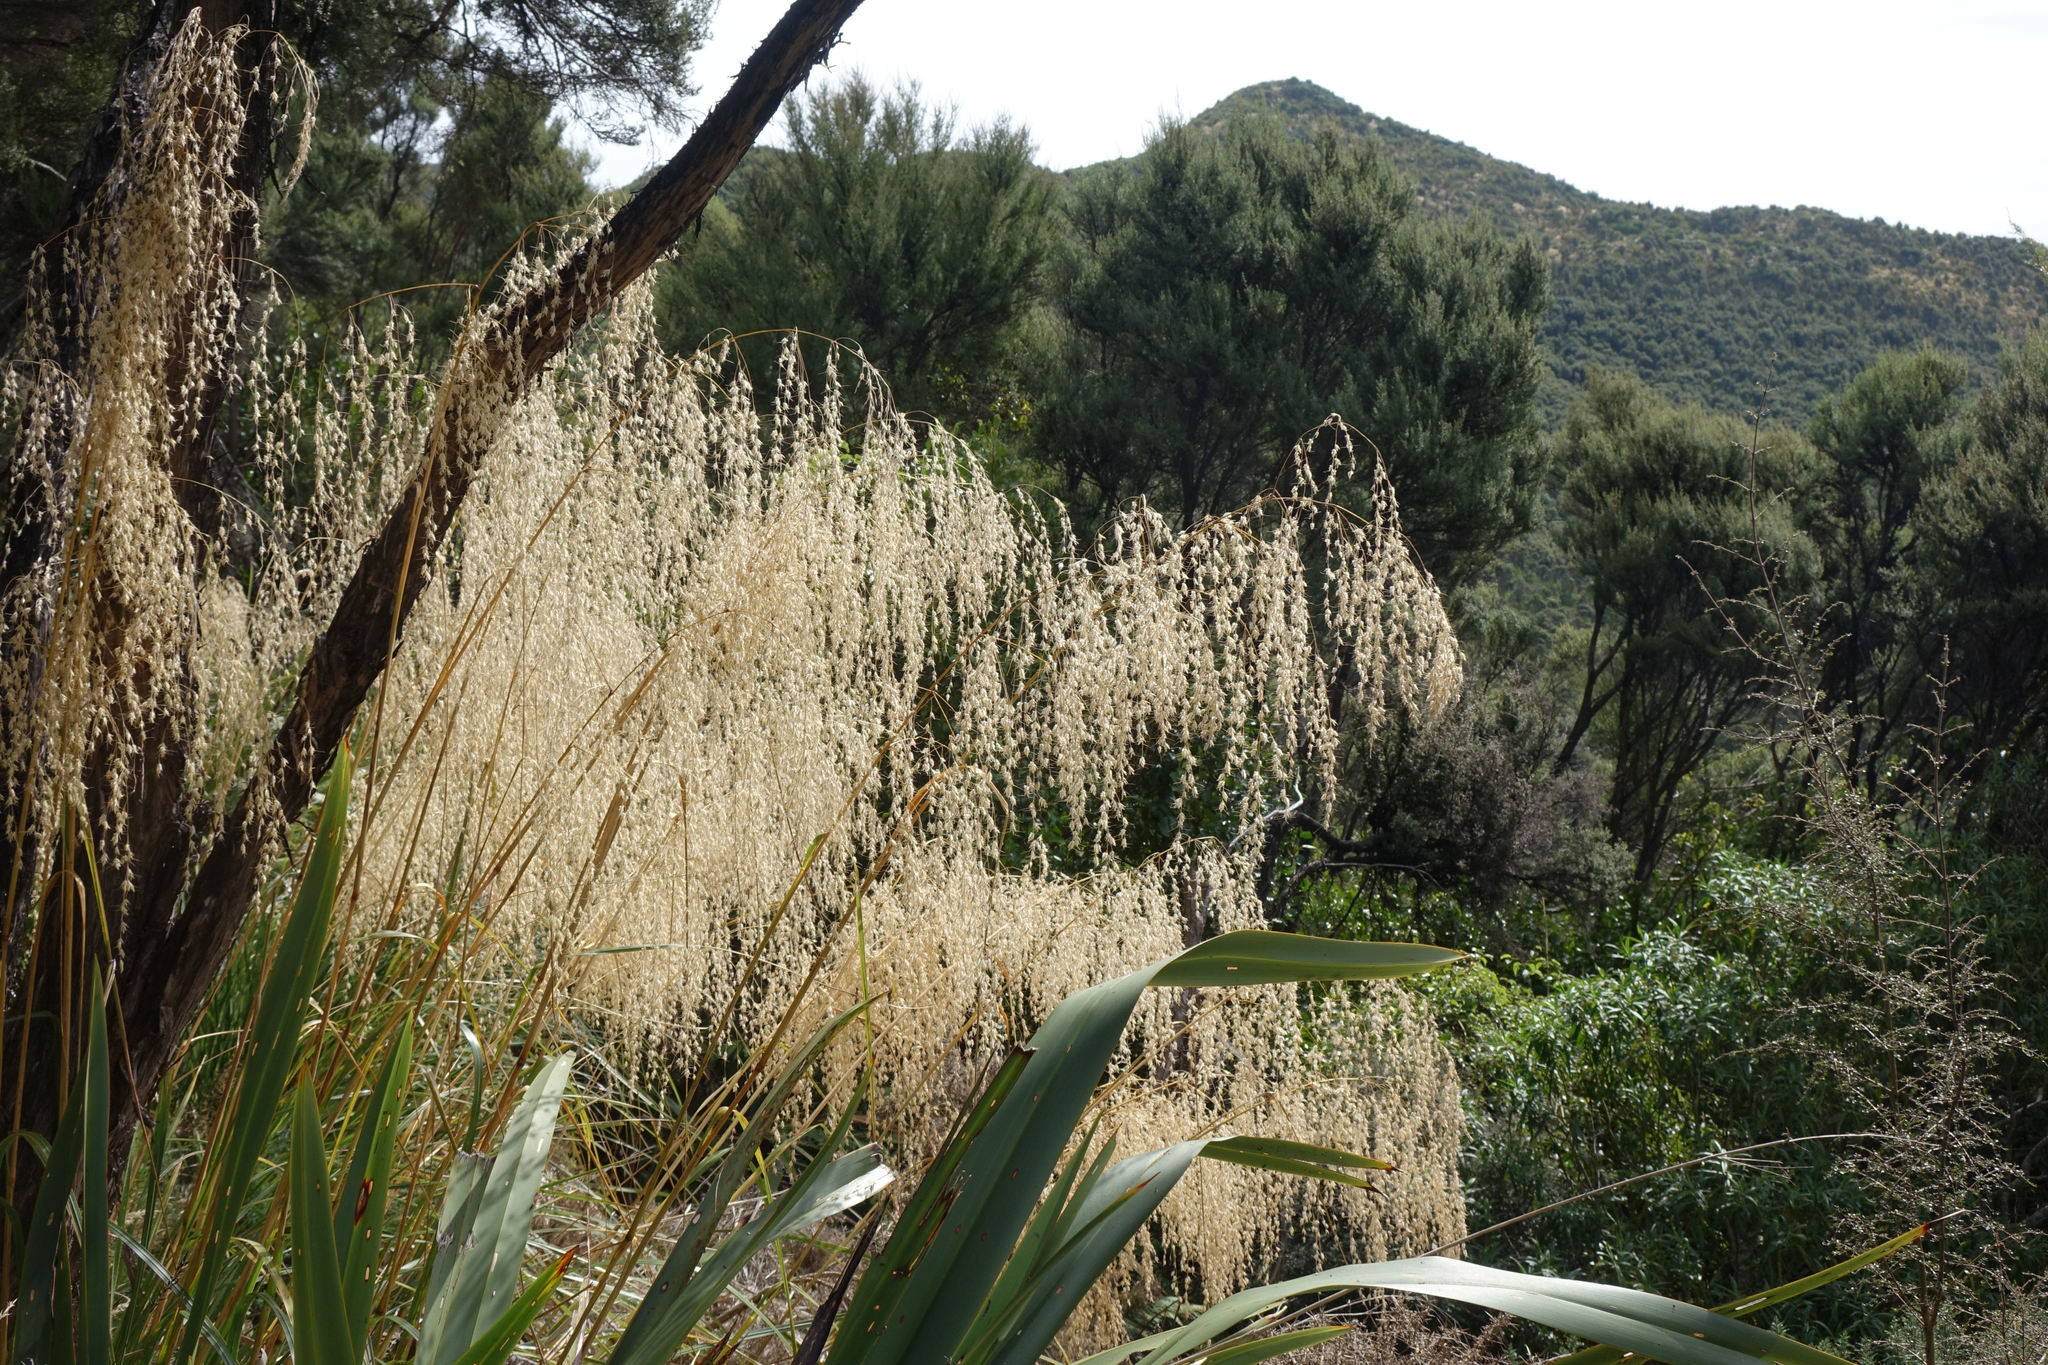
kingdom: Plantae
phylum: Tracheophyta
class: Liliopsida
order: Poales
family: Poaceae
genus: Chionochloa
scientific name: Chionochloa conspicua
